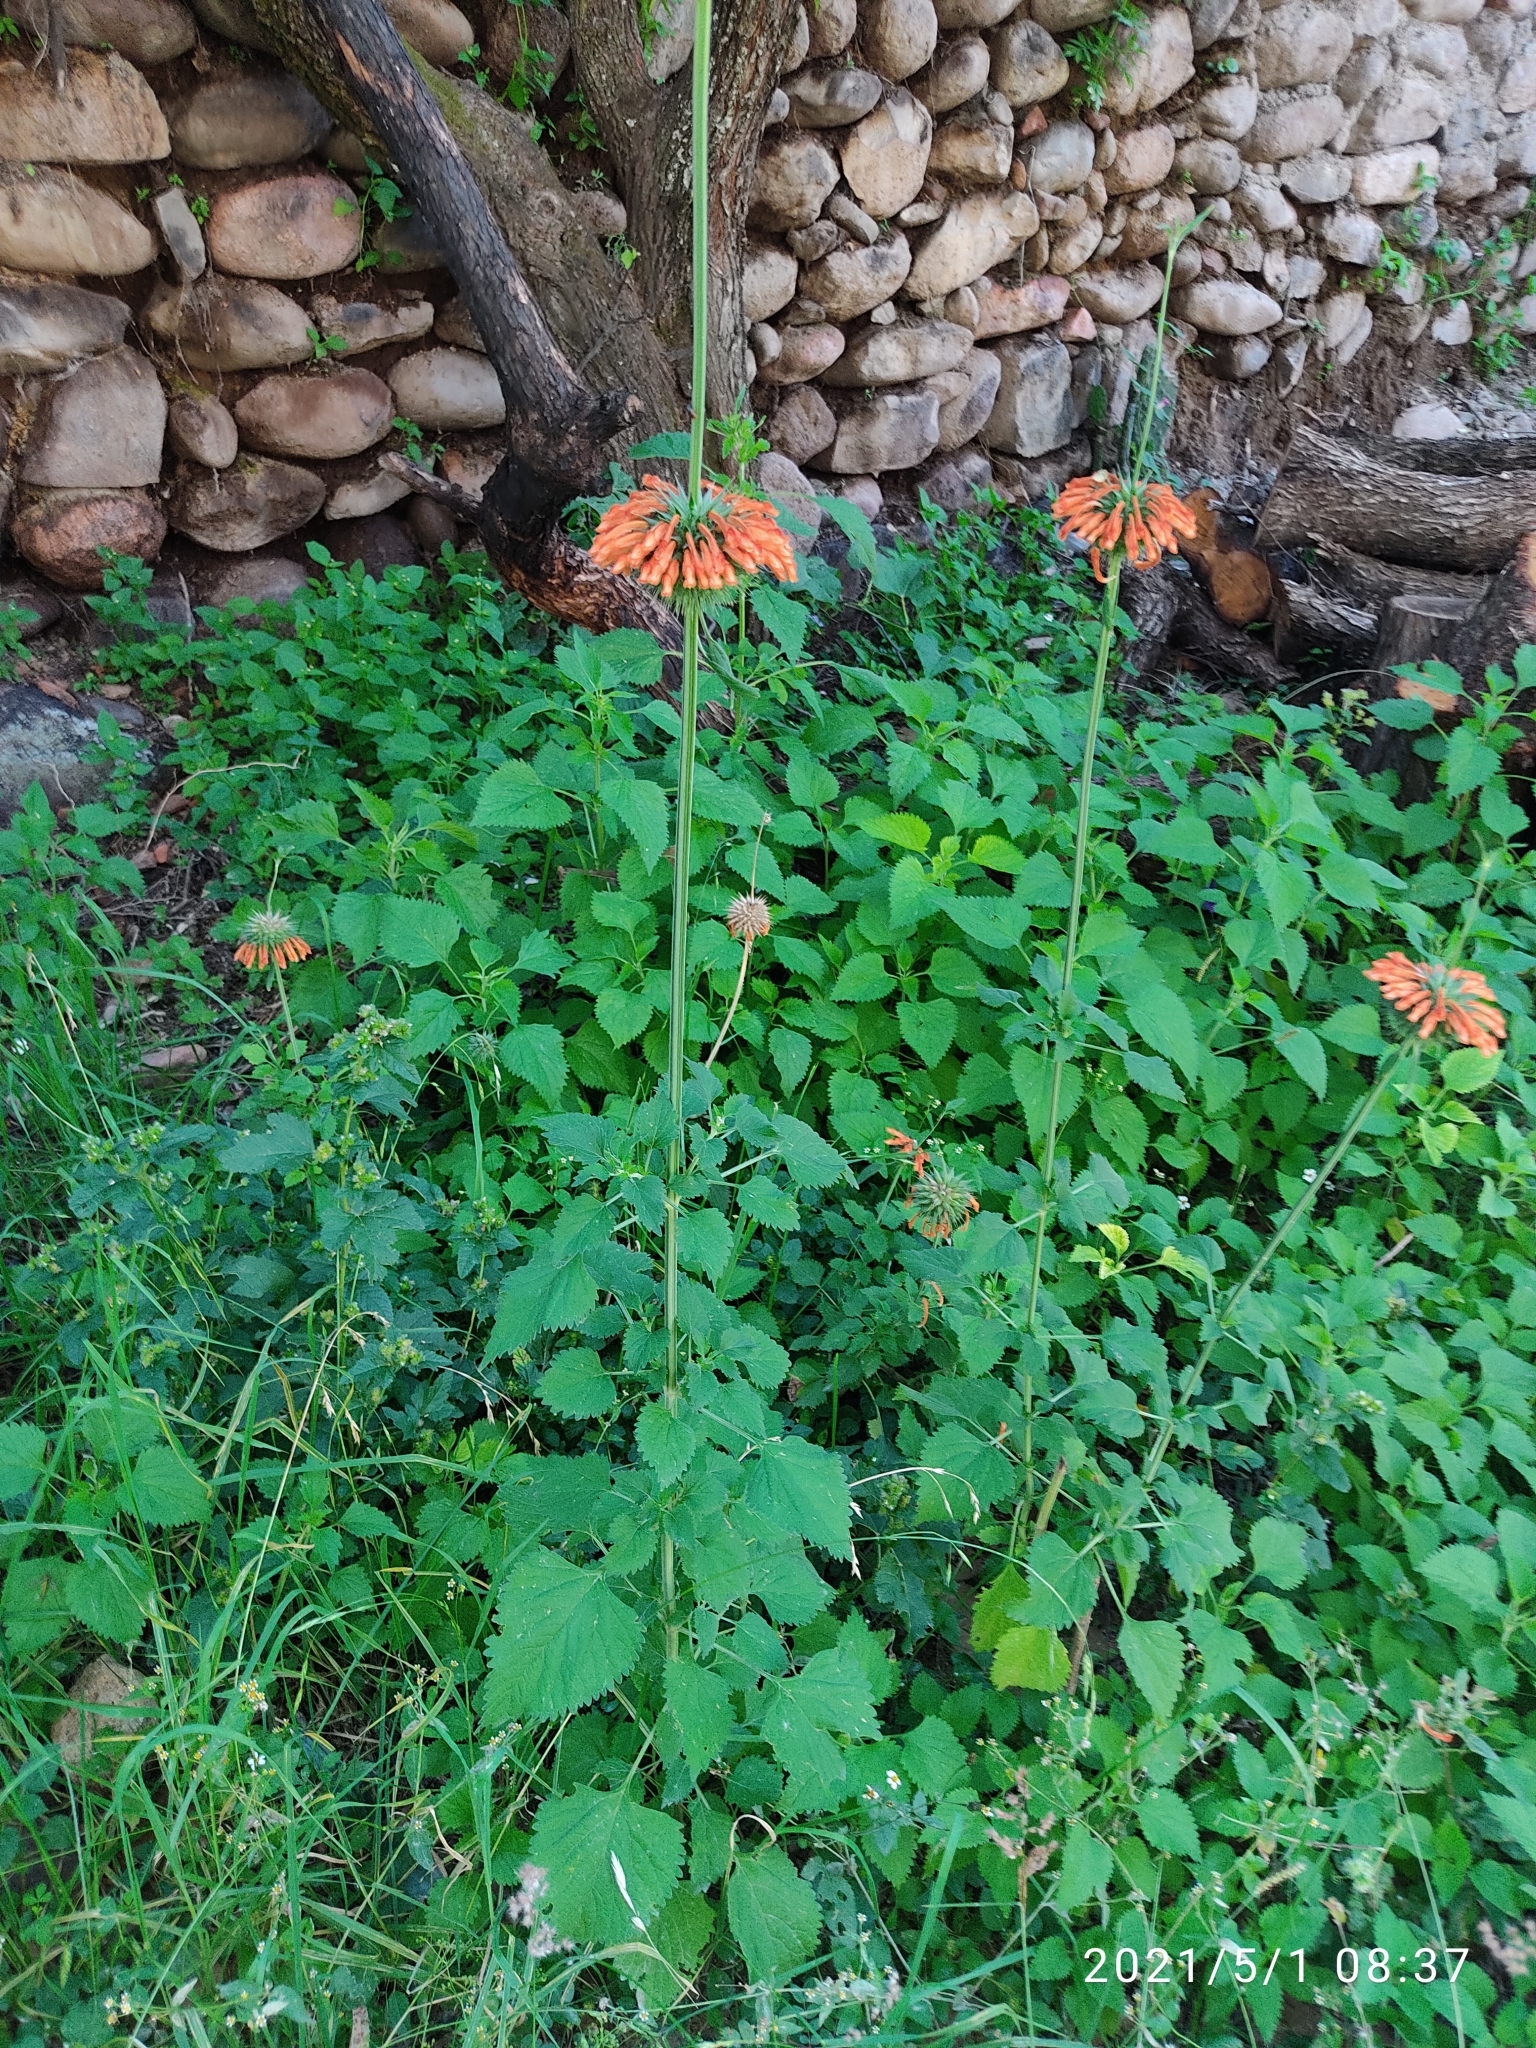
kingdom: Plantae
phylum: Tracheophyta
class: Magnoliopsida
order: Lamiales
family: Lamiaceae
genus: Leonotis
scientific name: Leonotis nepetifolia
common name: Christmas candlestick
